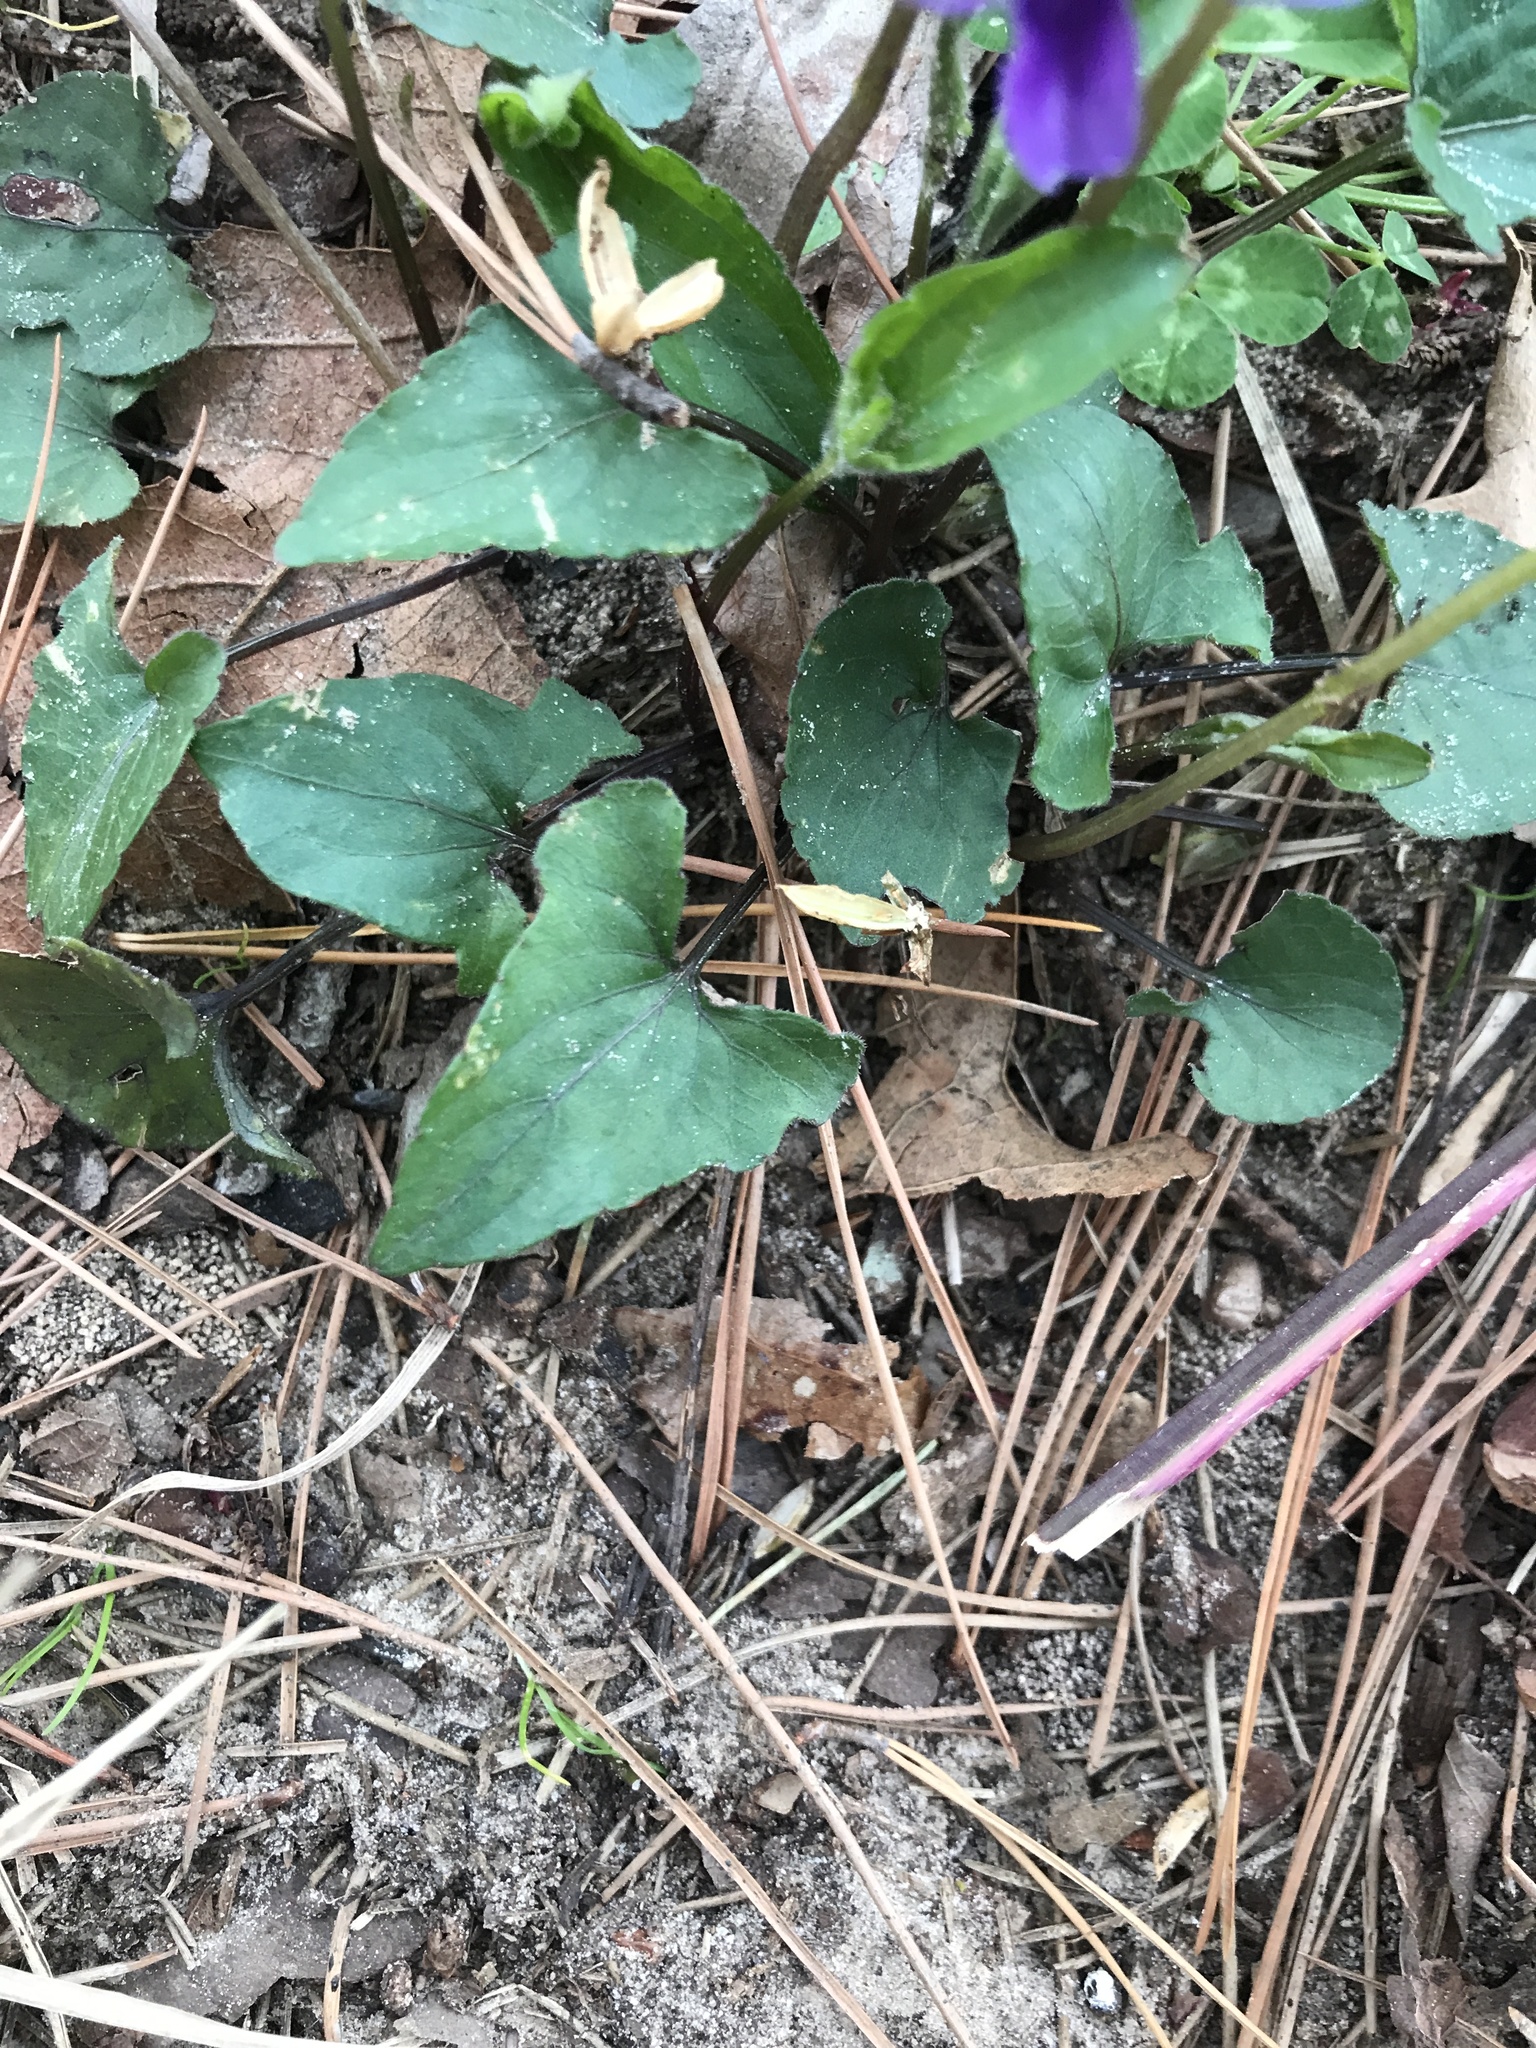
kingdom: Plantae
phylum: Tracheophyta
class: Magnoliopsida
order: Malpighiales
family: Violaceae
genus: Viola
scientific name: Viola sororia
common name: Dooryard violet
